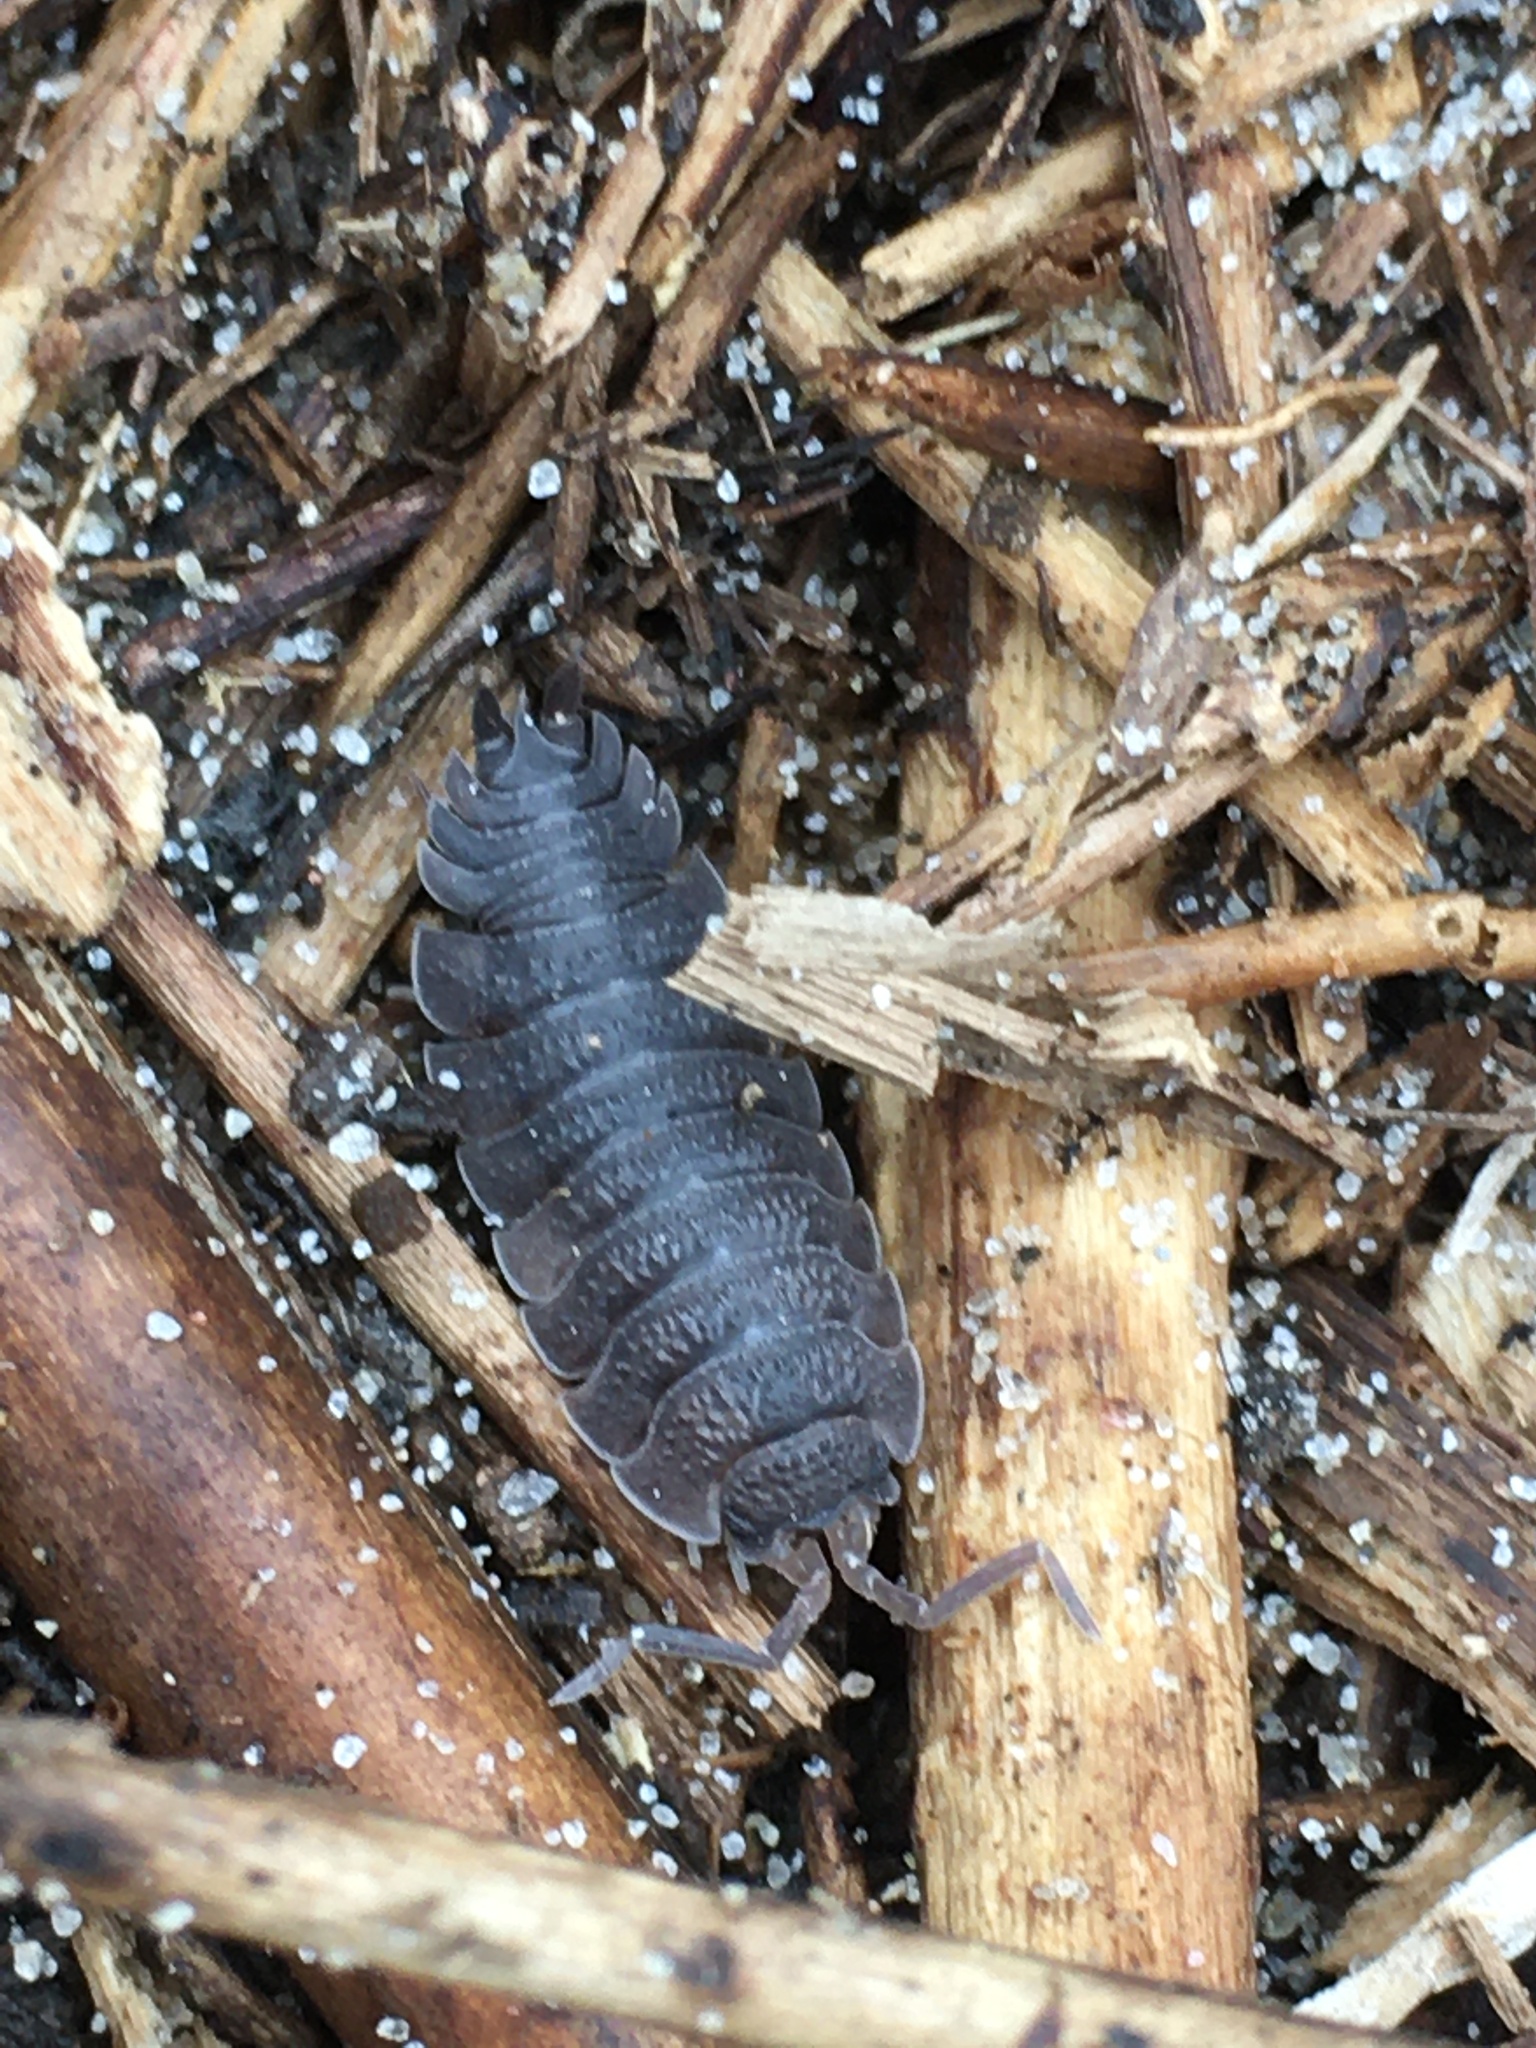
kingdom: Animalia
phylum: Arthropoda
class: Malacostraca
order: Isopoda
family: Porcellionidae
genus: Porcellio
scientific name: Porcellio scaber
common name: Common rough woodlouse
